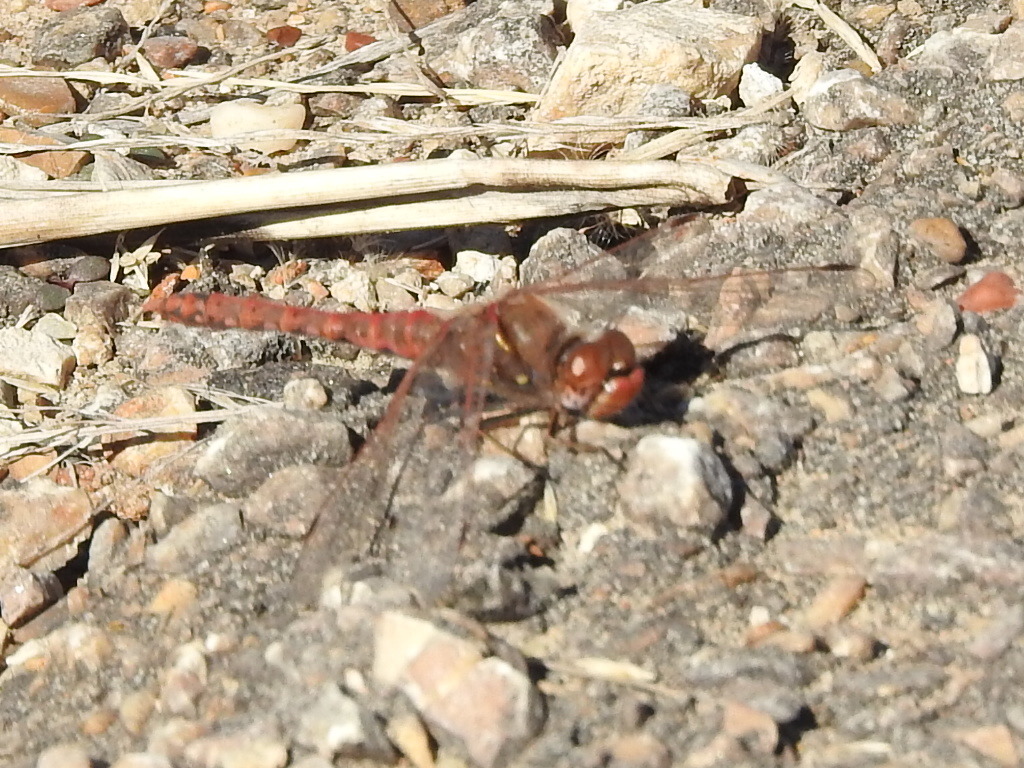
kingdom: Animalia
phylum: Arthropoda
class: Insecta
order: Odonata
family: Libellulidae
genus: Sympetrum
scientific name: Sympetrum corruptum
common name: Variegated meadowhawk
